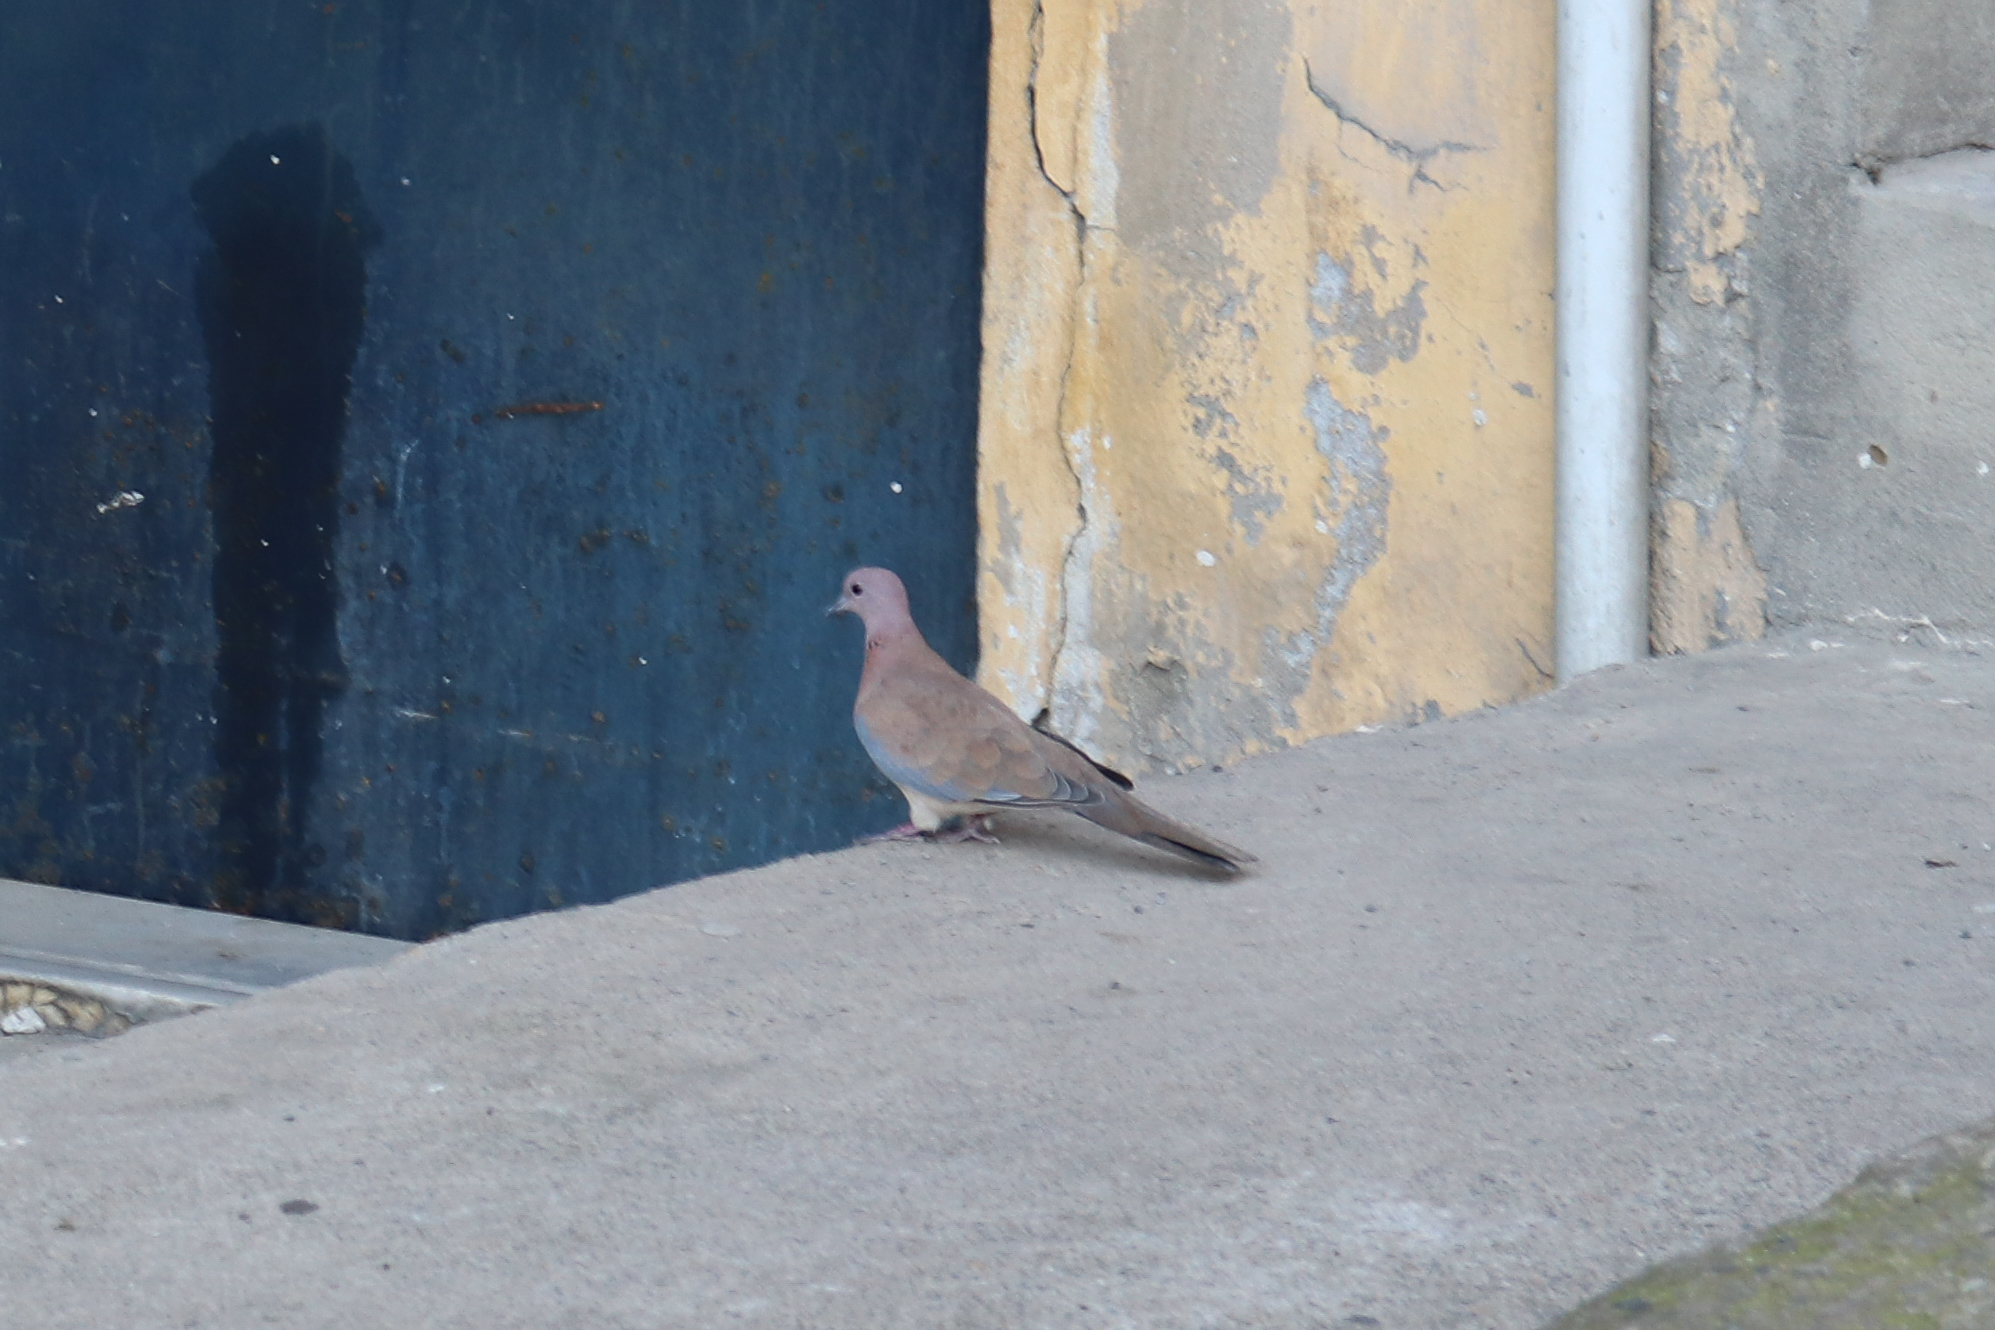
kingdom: Animalia
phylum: Chordata
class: Aves
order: Columbiformes
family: Columbidae
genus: Streptopelia
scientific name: Streptopelia decaocto
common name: Eurasian collared dove
